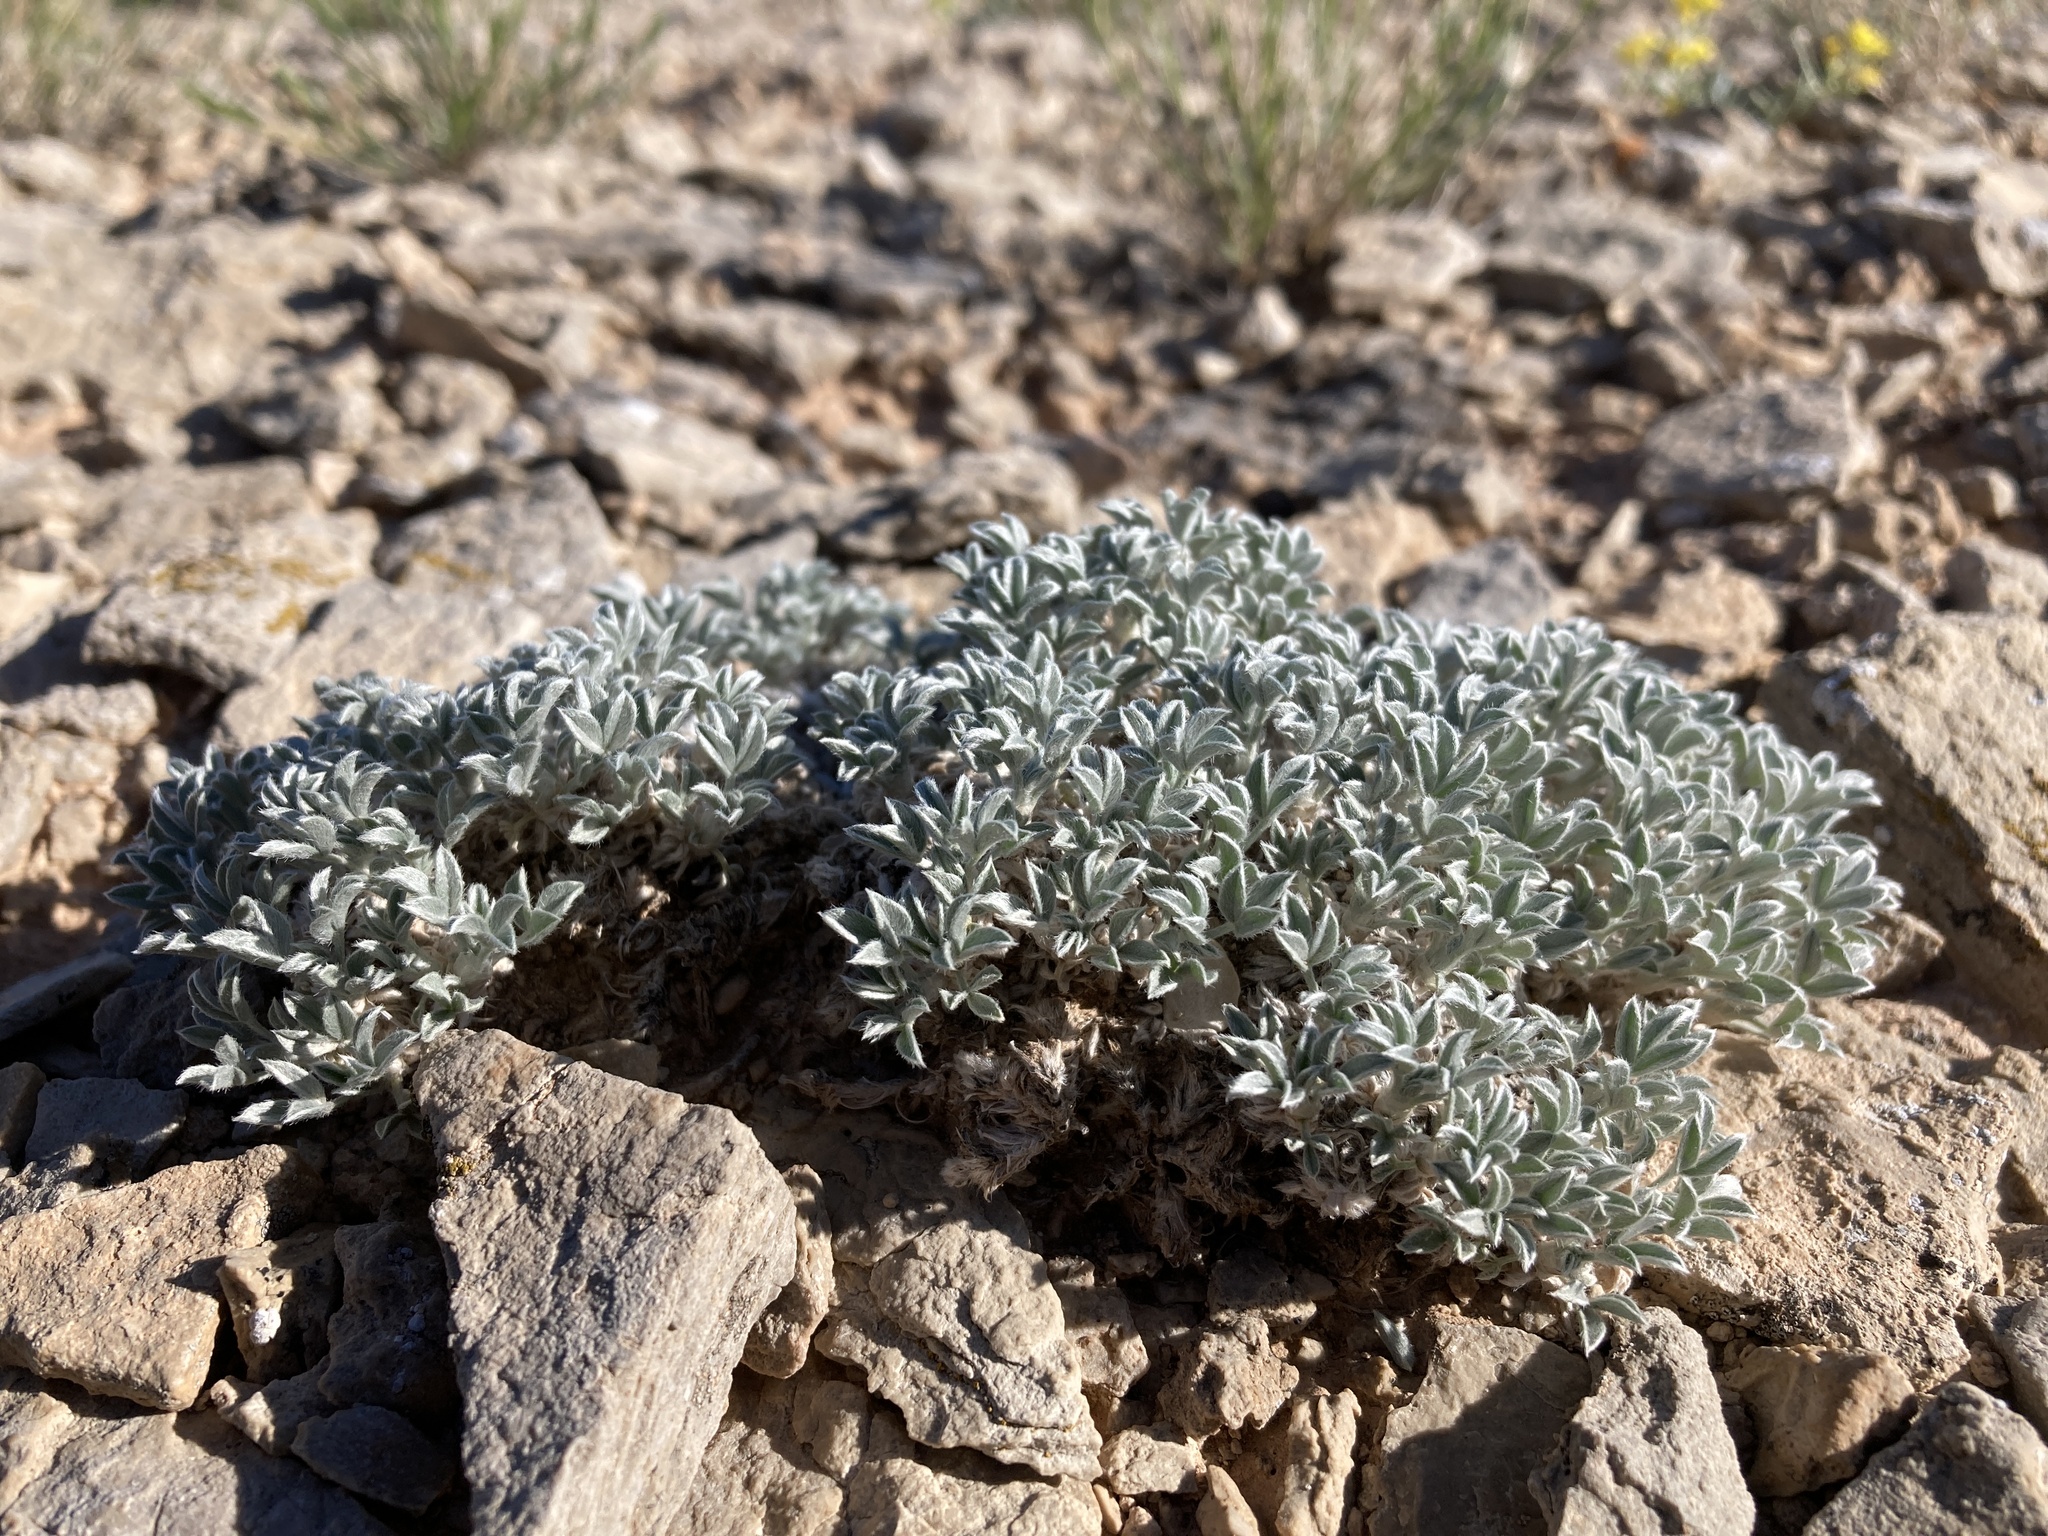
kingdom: Plantae
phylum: Tracheophyta
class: Magnoliopsida
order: Fabales
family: Fabaceae
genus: Astragalus
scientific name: Astragalus hyalinus
